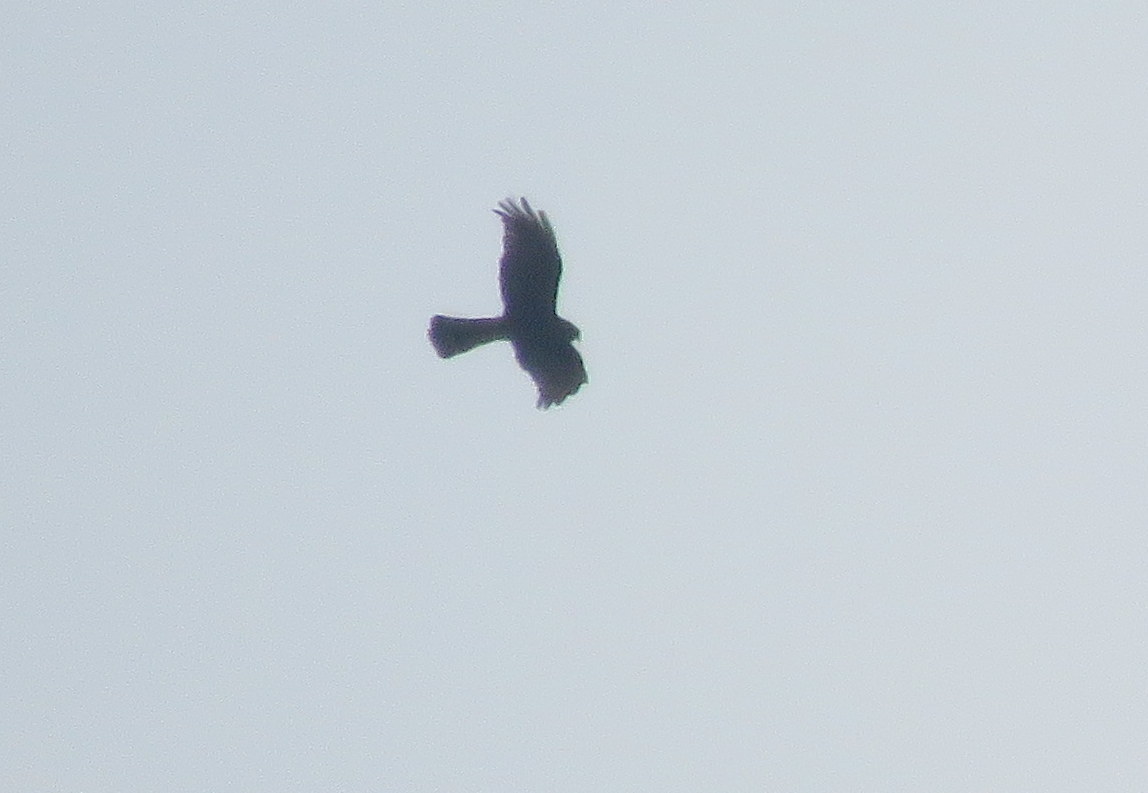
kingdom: Animalia
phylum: Chordata
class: Aves
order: Accipitriformes
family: Accipitridae
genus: Circus
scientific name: Circus buffoni
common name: Long-winged harrier
